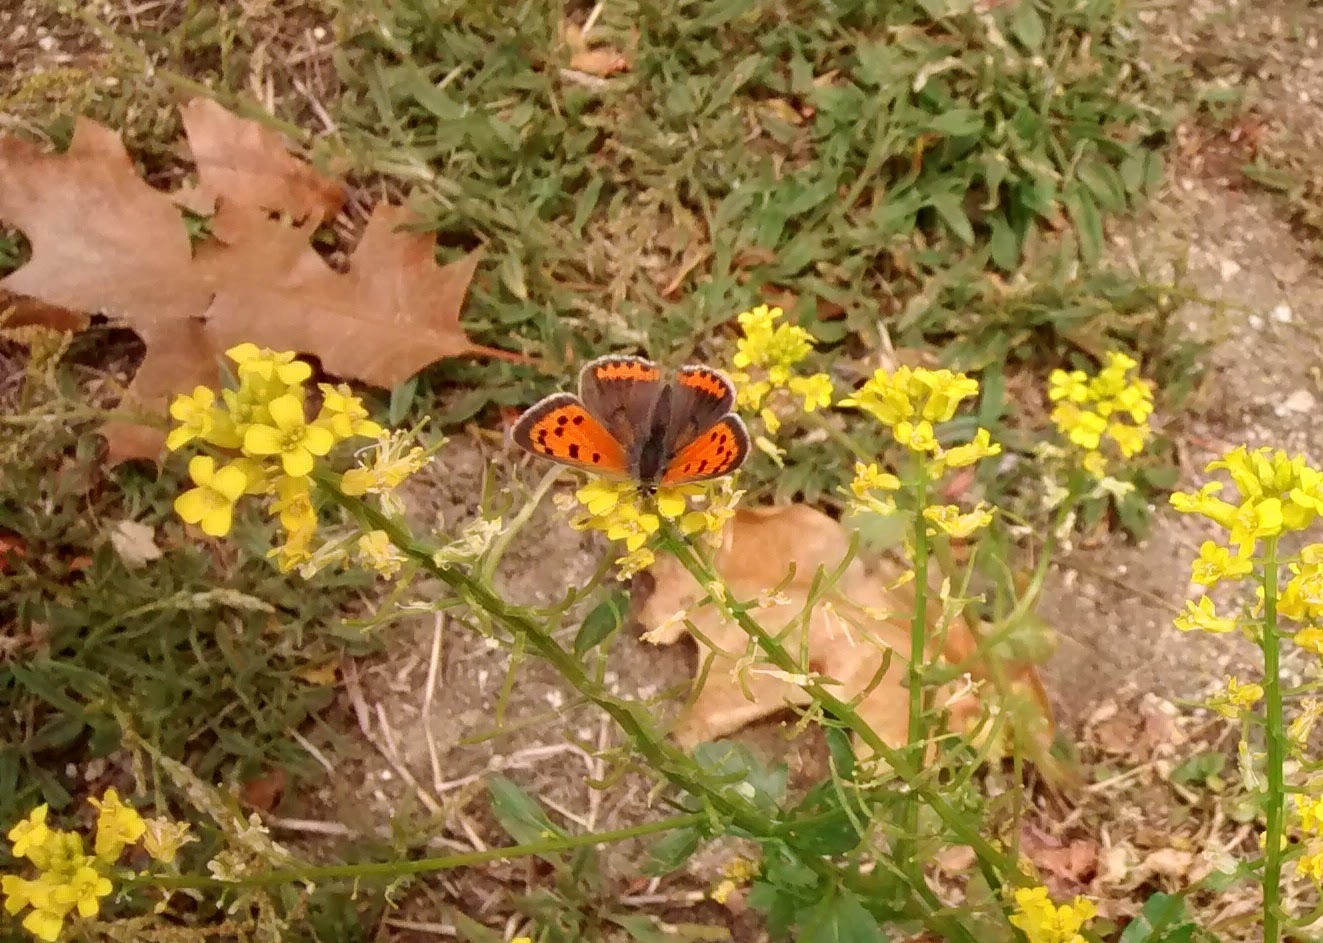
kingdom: Animalia
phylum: Arthropoda
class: Insecta
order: Lepidoptera
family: Lycaenidae
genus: Lycaena
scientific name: Lycaena hypophlaeas
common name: American copper
